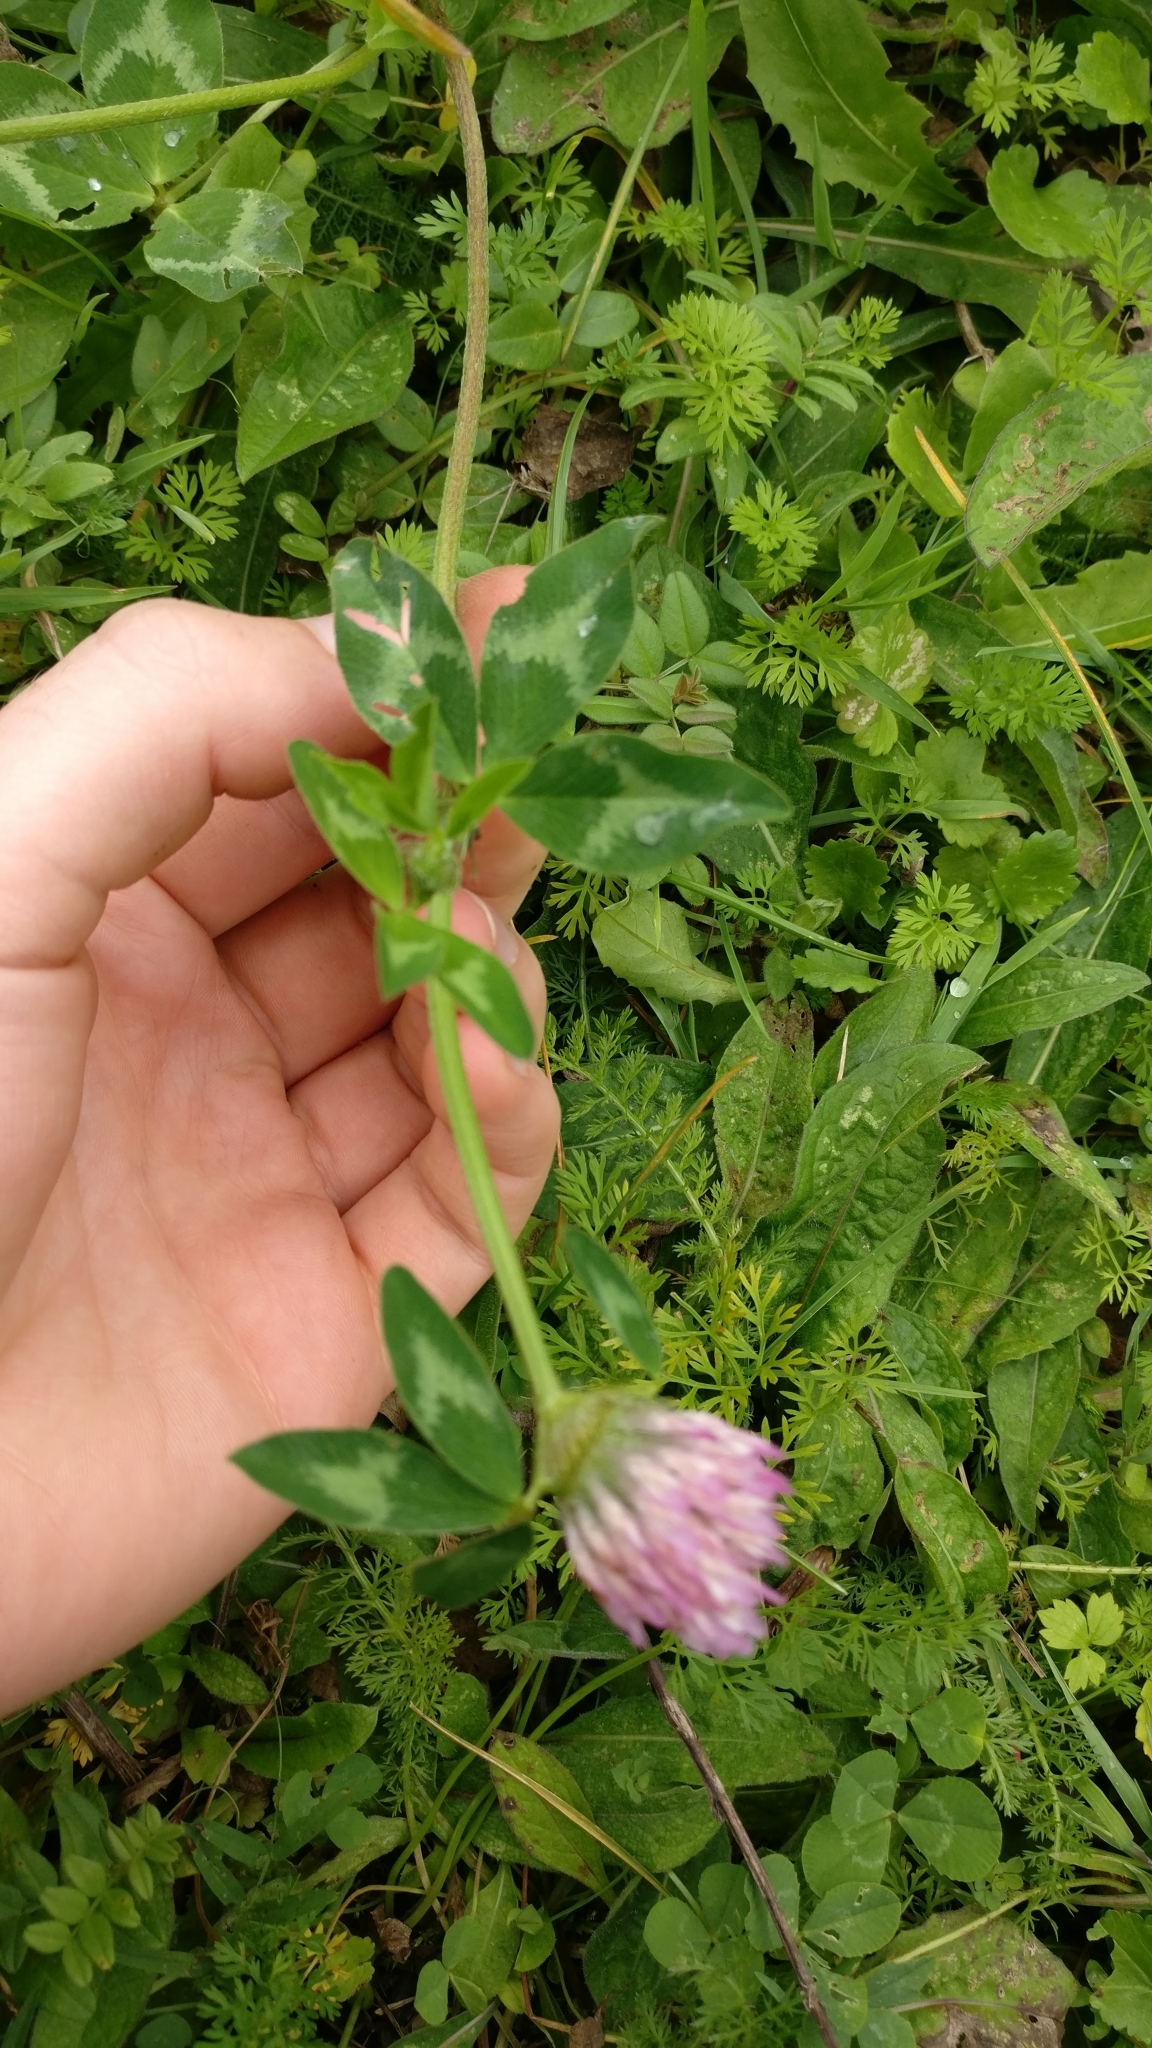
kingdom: Plantae
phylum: Tracheophyta
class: Magnoliopsida
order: Fabales
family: Fabaceae
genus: Trifolium
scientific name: Trifolium pratense
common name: Red clover
